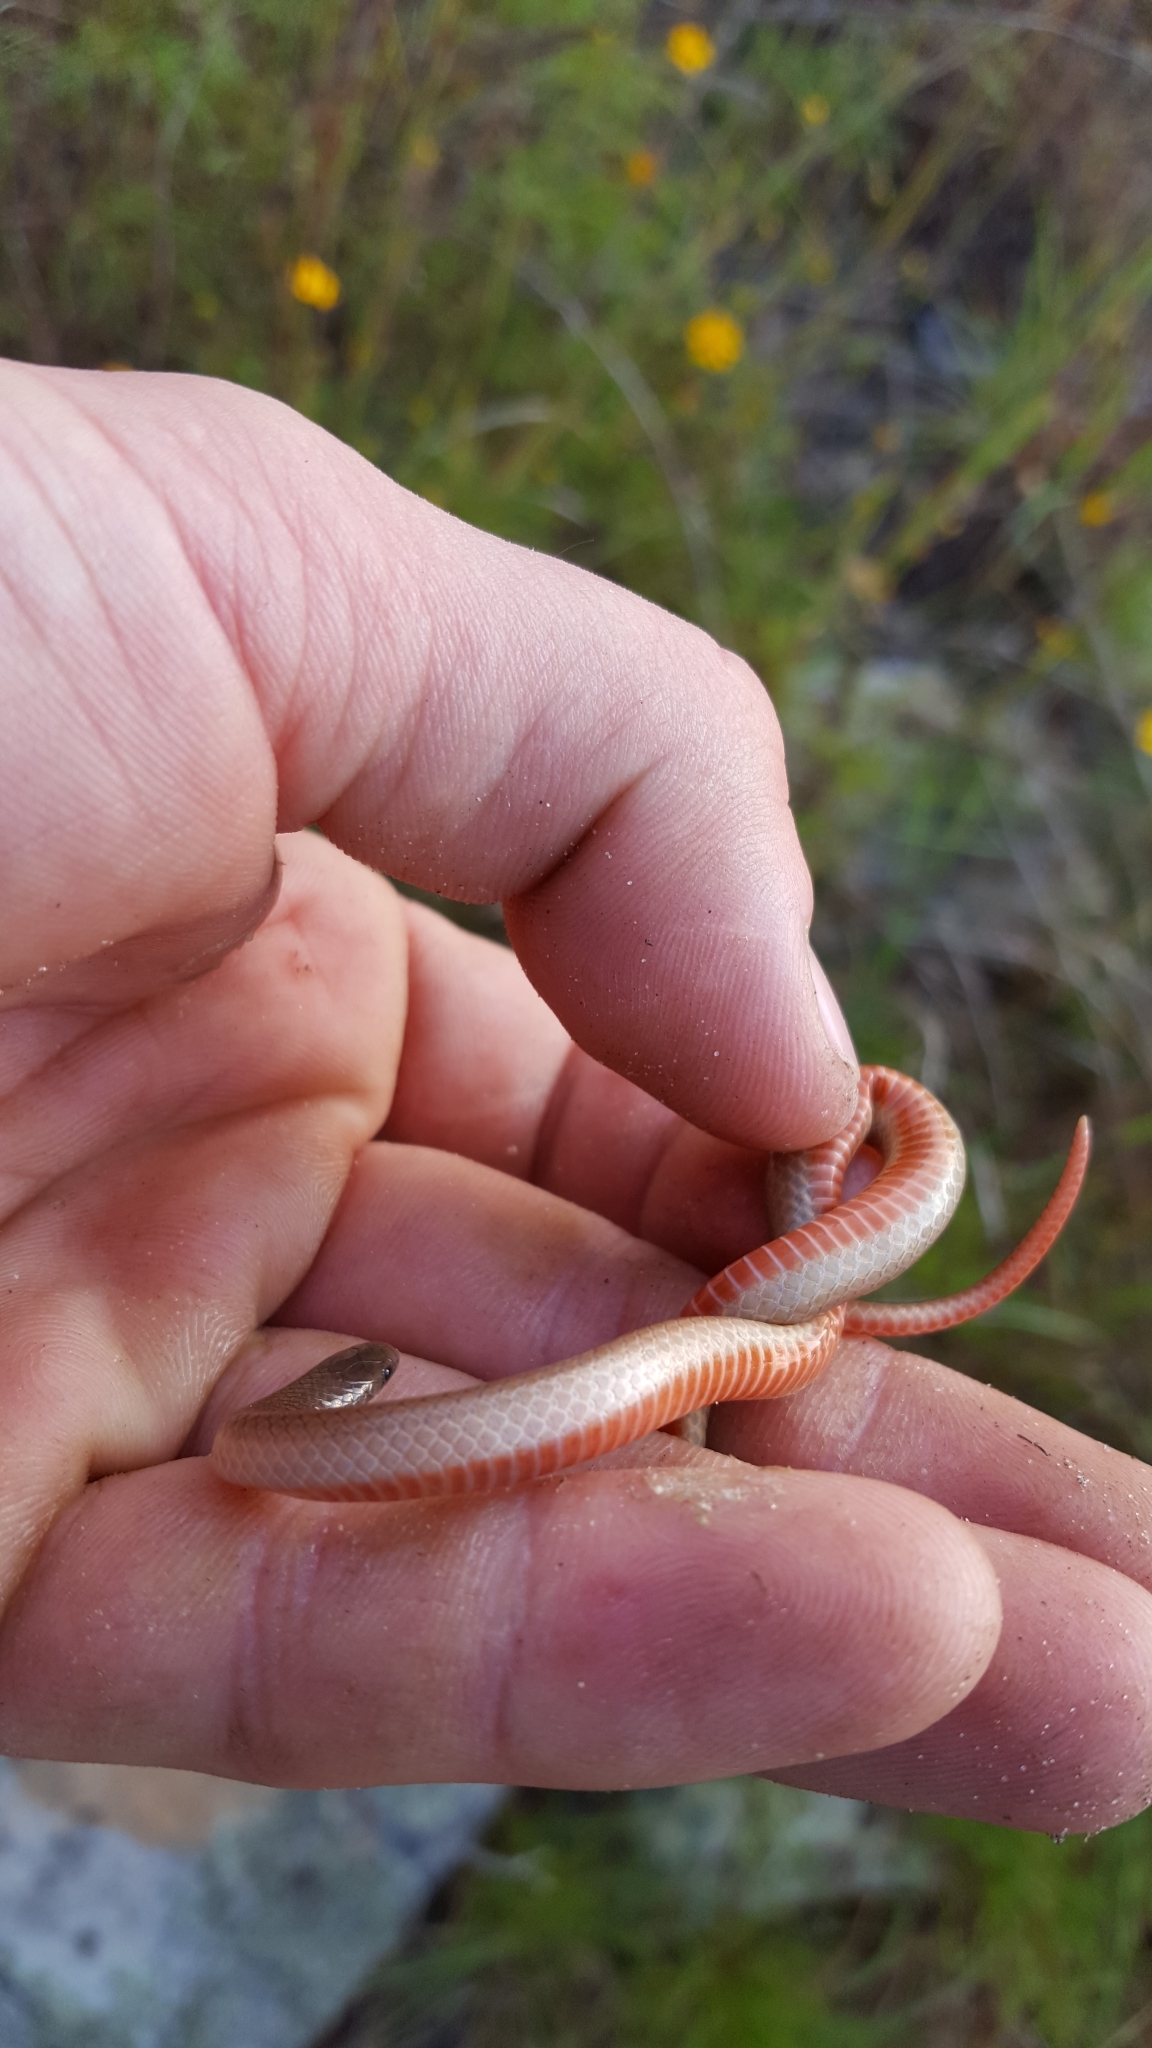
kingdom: Animalia
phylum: Chordata
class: Squamata
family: Colubridae
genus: Tantilla
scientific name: Tantilla gracilis
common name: Flathead snake
